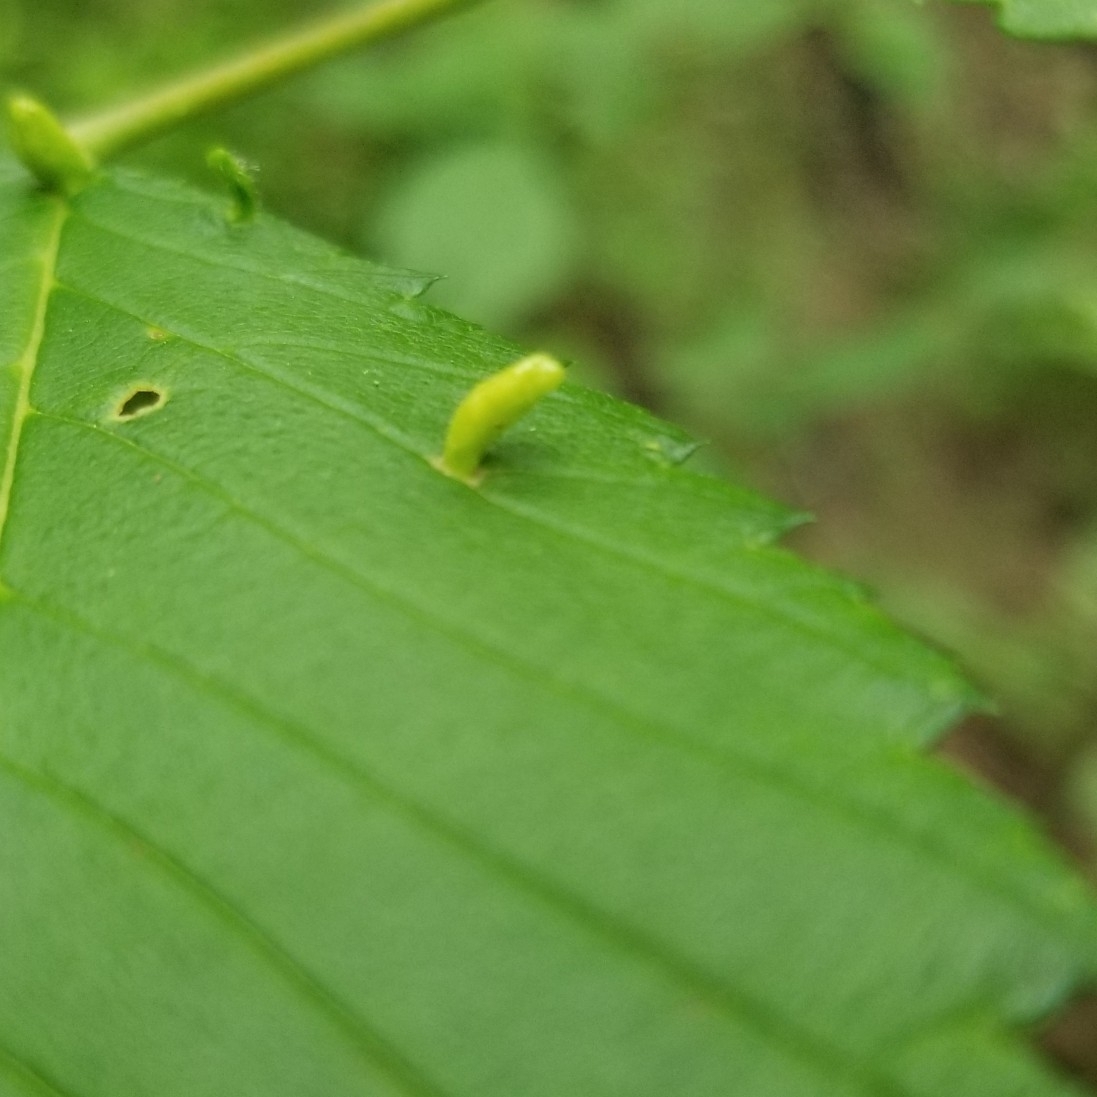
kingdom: Animalia
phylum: Arthropoda
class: Arachnida
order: Trombidiformes
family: Eriophyidae
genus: Aceria
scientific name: Aceria
